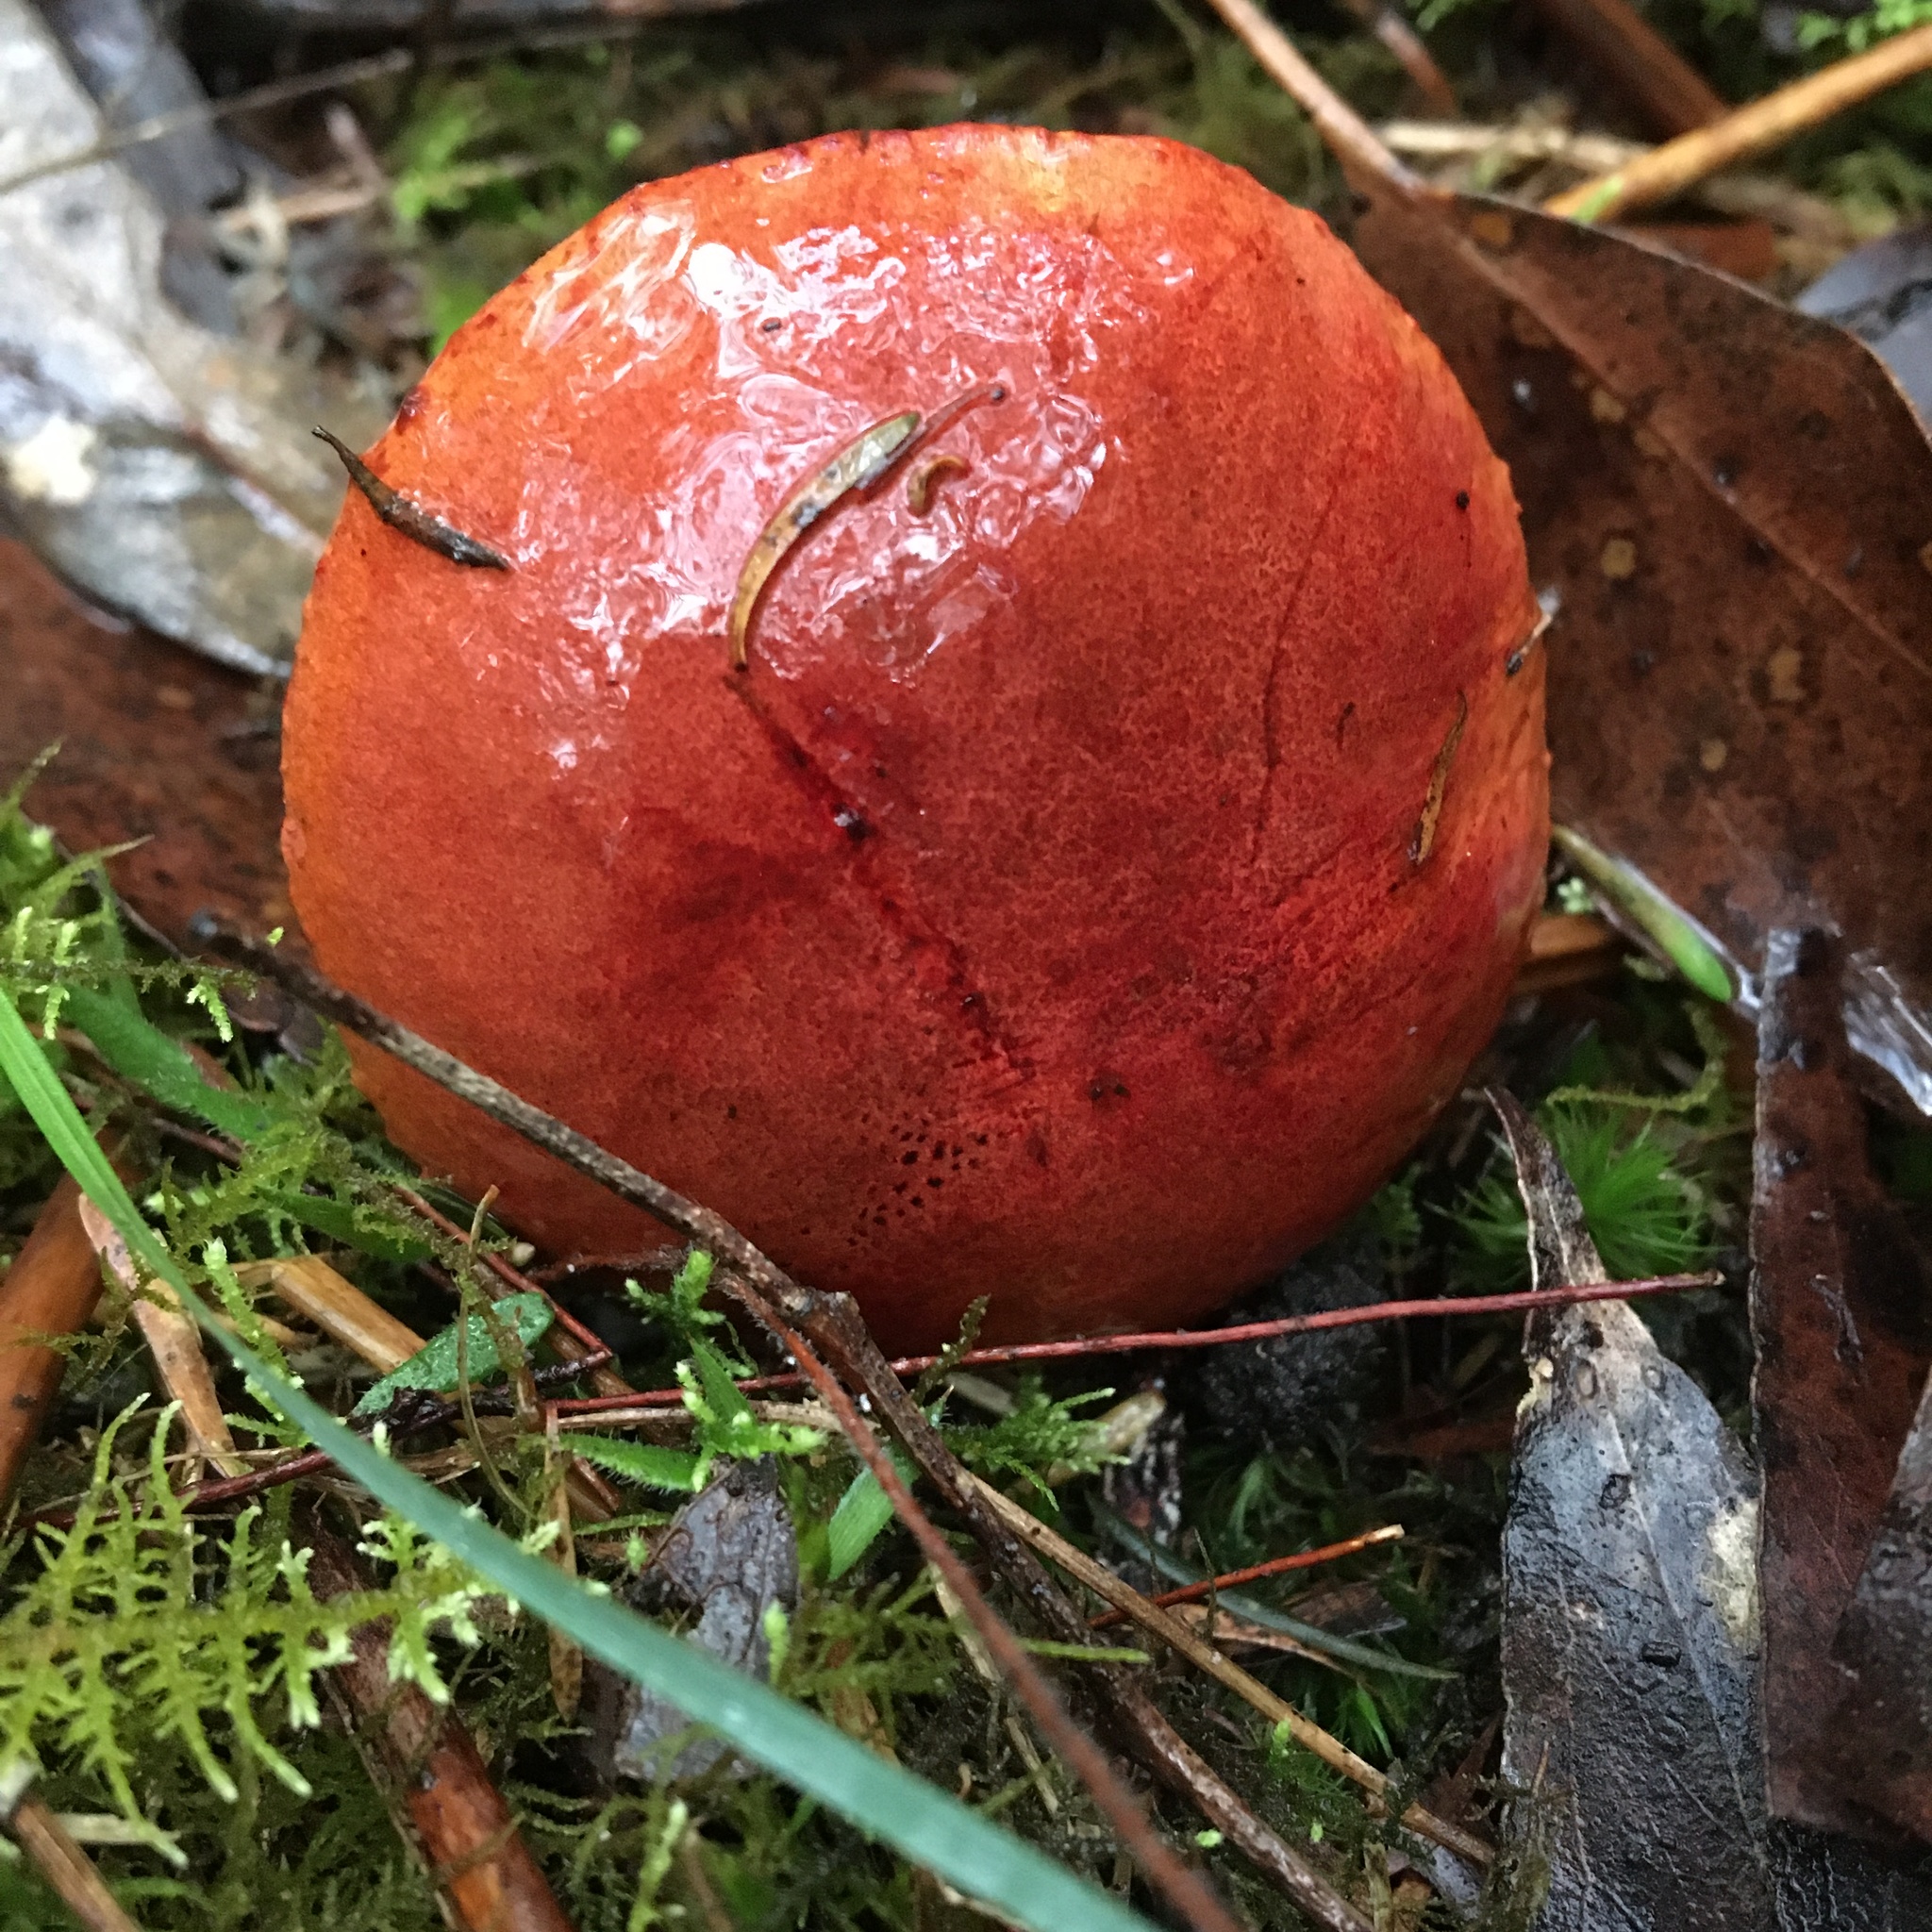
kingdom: Fungi
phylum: Basidiomycota
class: Agaricomycetes
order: Boletales
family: Boletaceae
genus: Boletellus
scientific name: Boletellus obscurecoccineus
